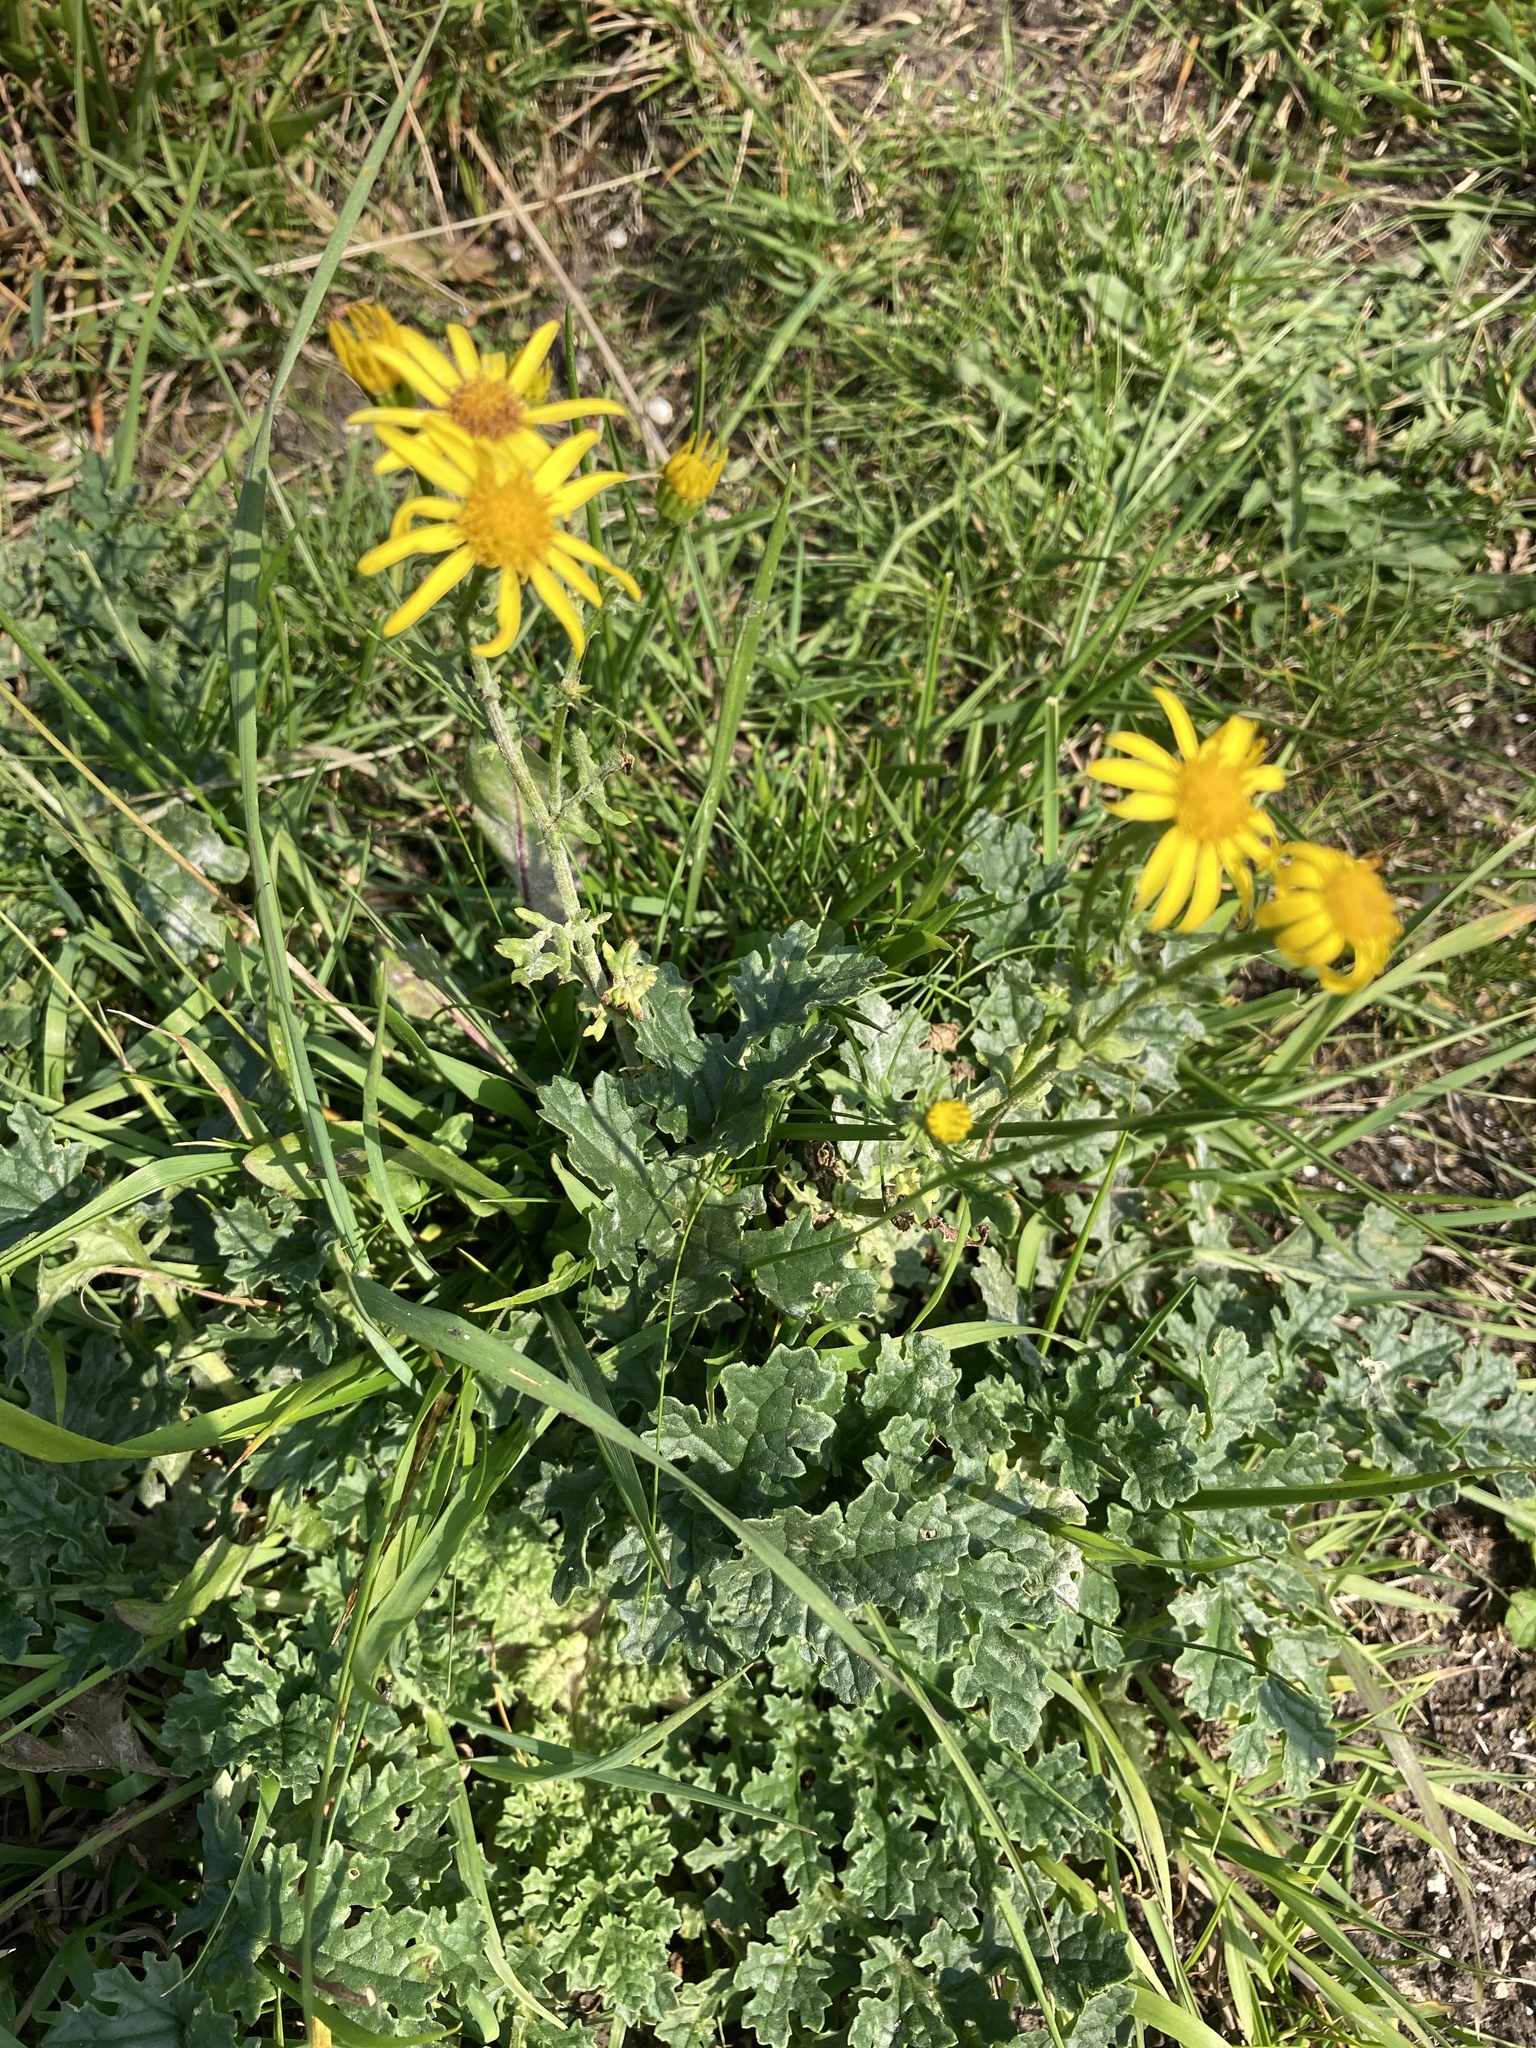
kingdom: Plantae
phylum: Tracheophyta
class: Magnoliopsida
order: Asterales
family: Asteraceae
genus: Jacobaea
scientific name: Jacobaea vulgaris
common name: Stinking willie
